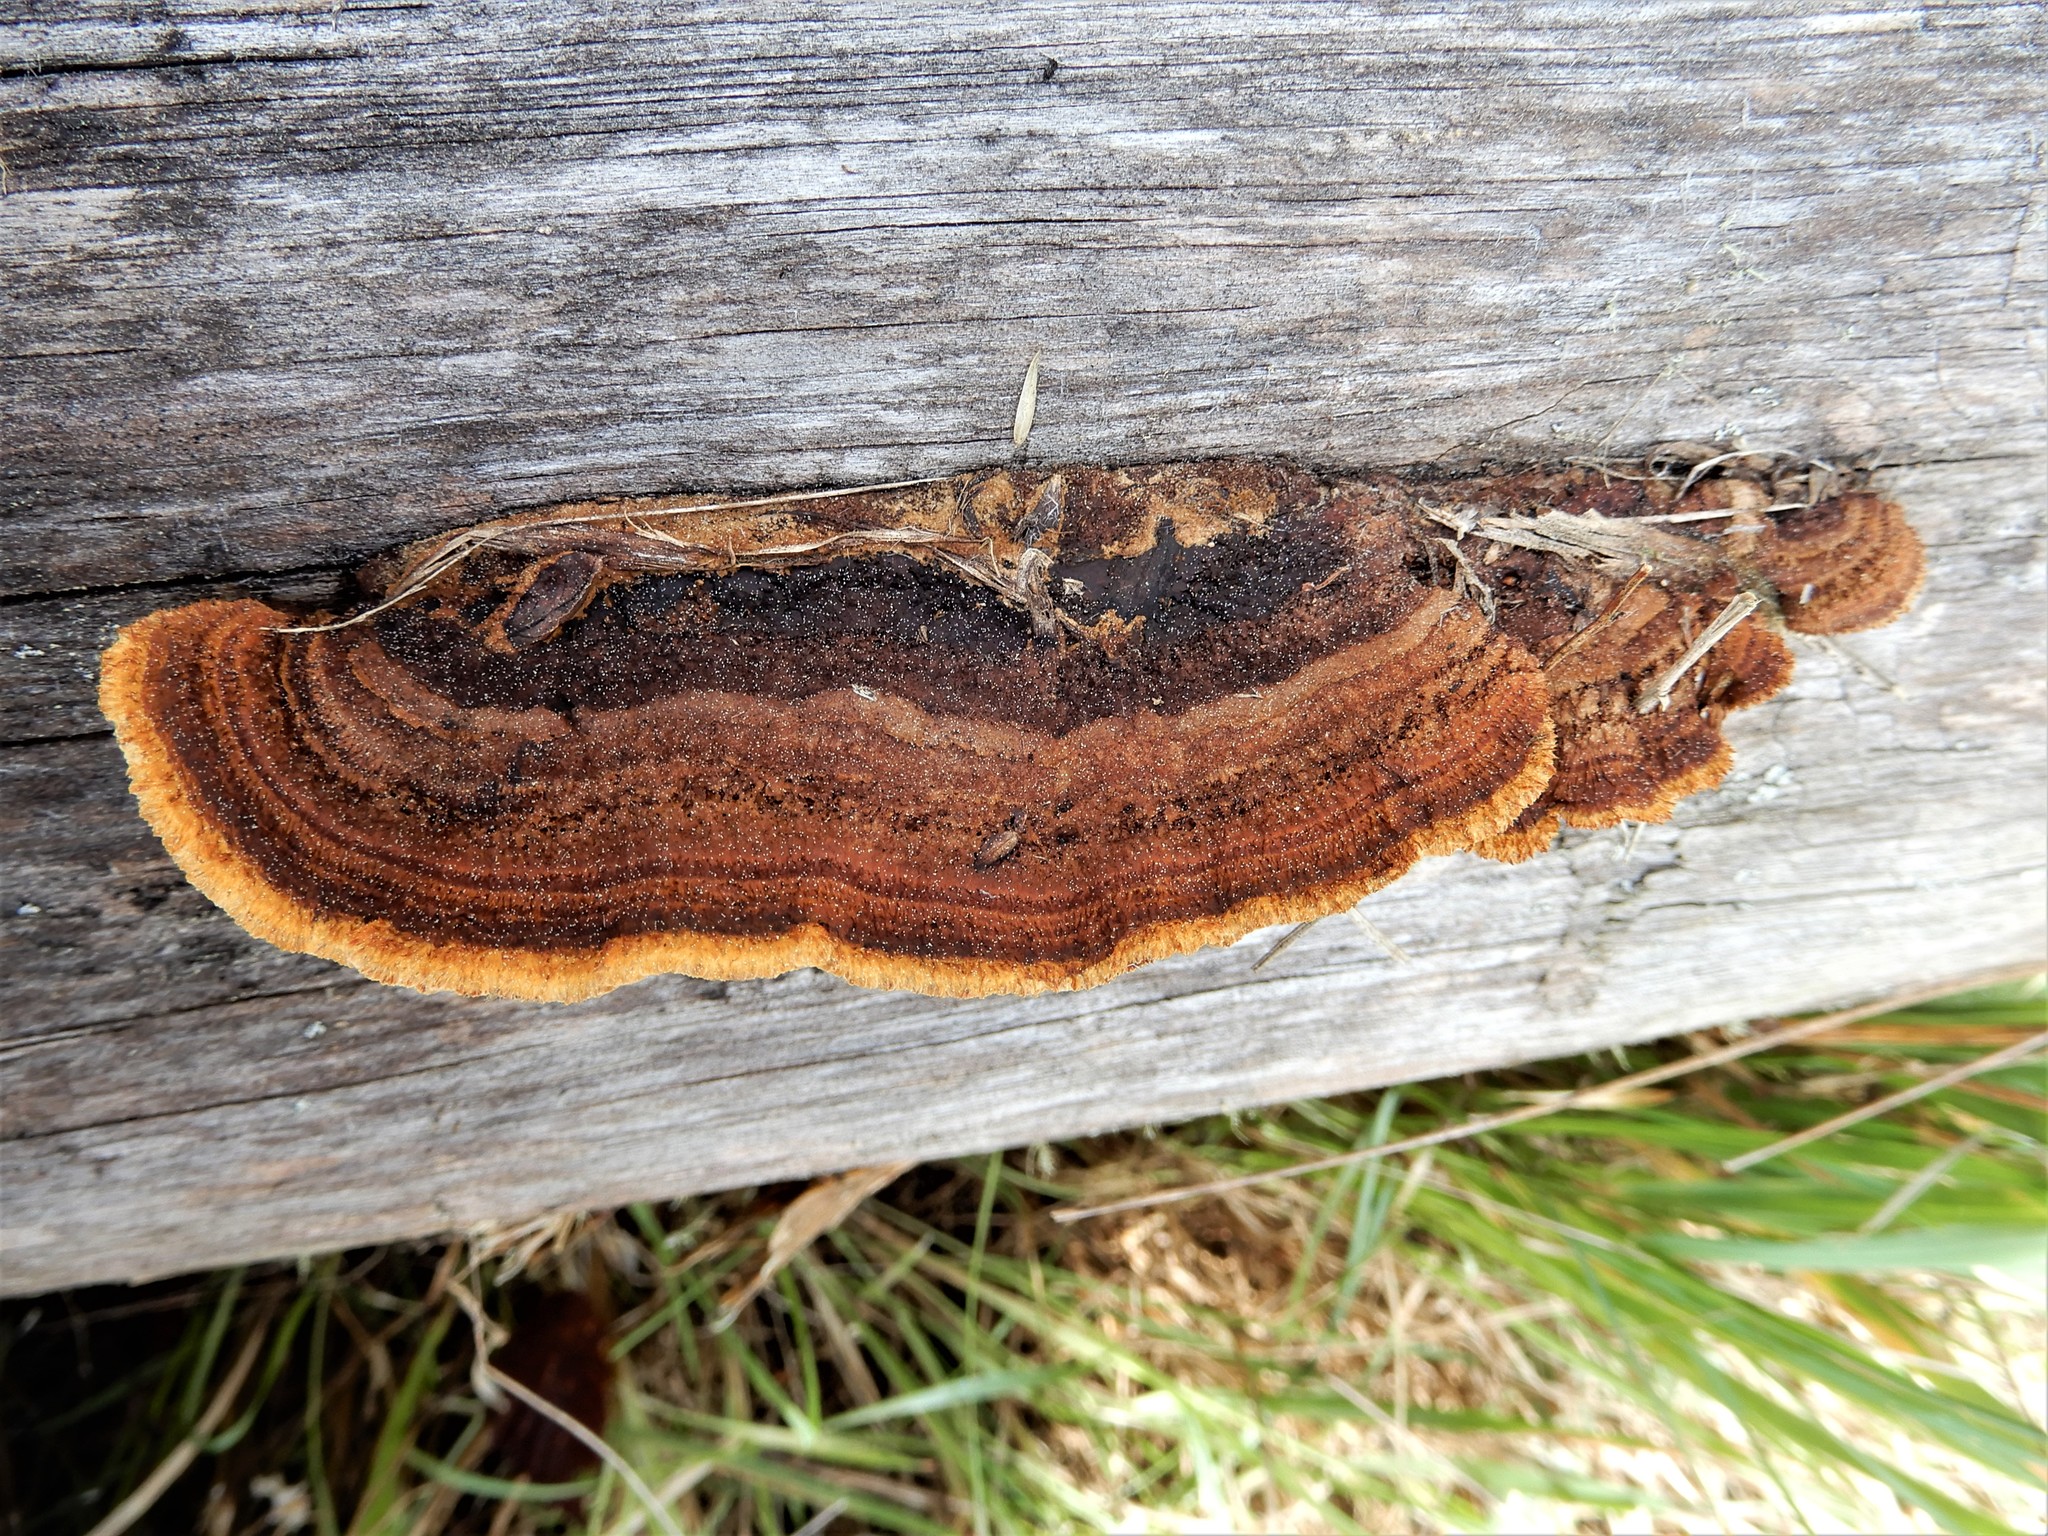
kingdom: Fungi
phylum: Basidiomycota
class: Agaricomycetes
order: Gloeophyllales
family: Gloeophyllaceae
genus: Gloeophyllum
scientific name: Gloeophyllum sepiarium
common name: Conifer mazegill
